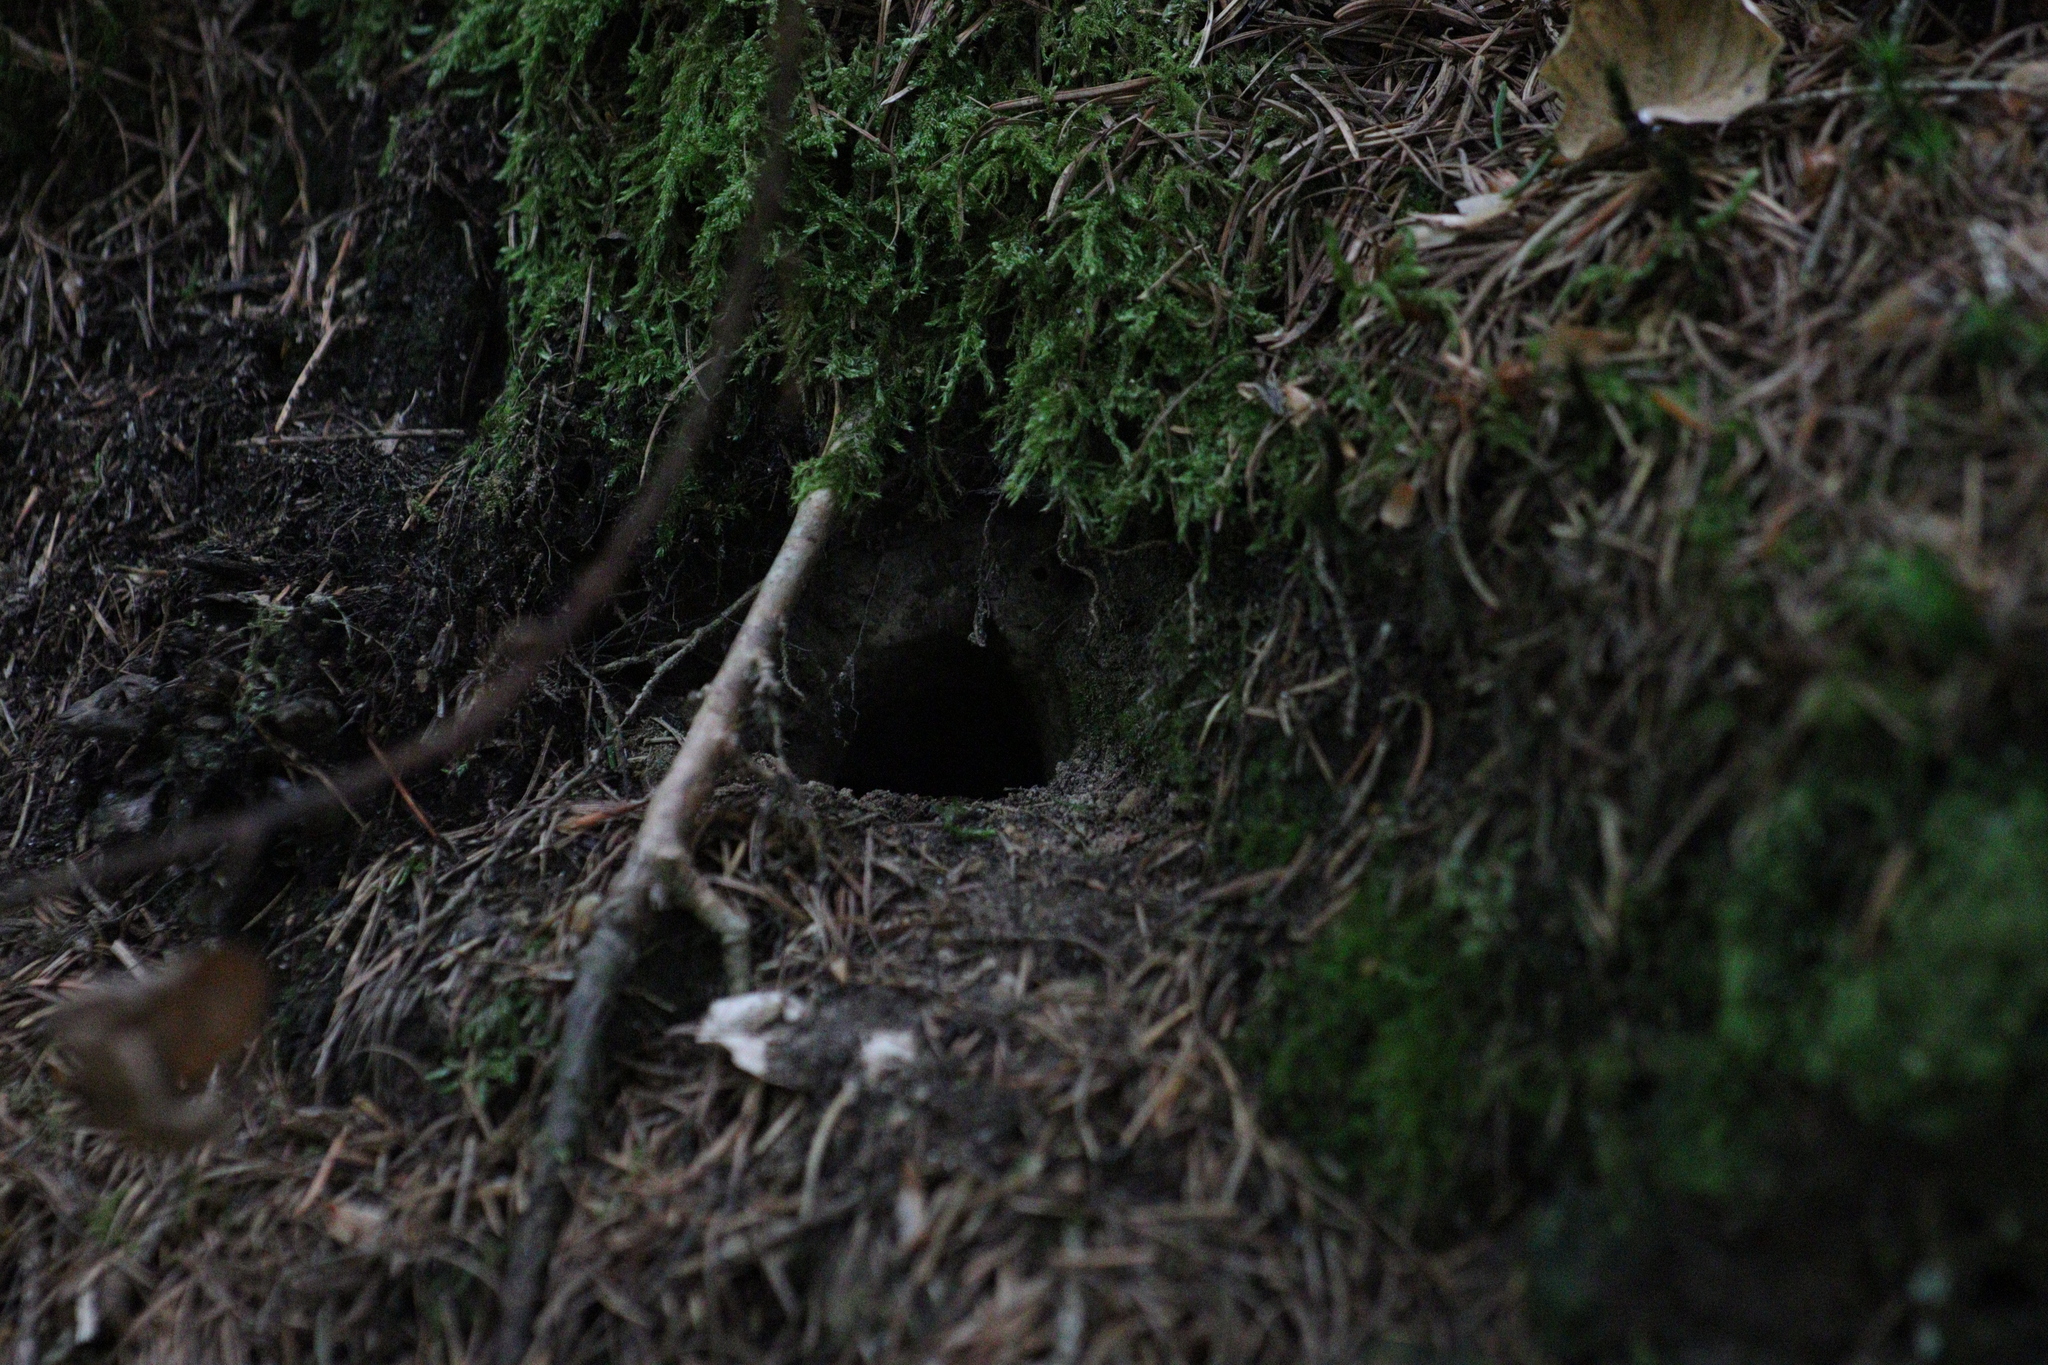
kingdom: Animalia
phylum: Chordata
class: Mammalia
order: Rodentia
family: Cricetidae
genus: Myodes
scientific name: Myodes glareolus
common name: Bank vole
